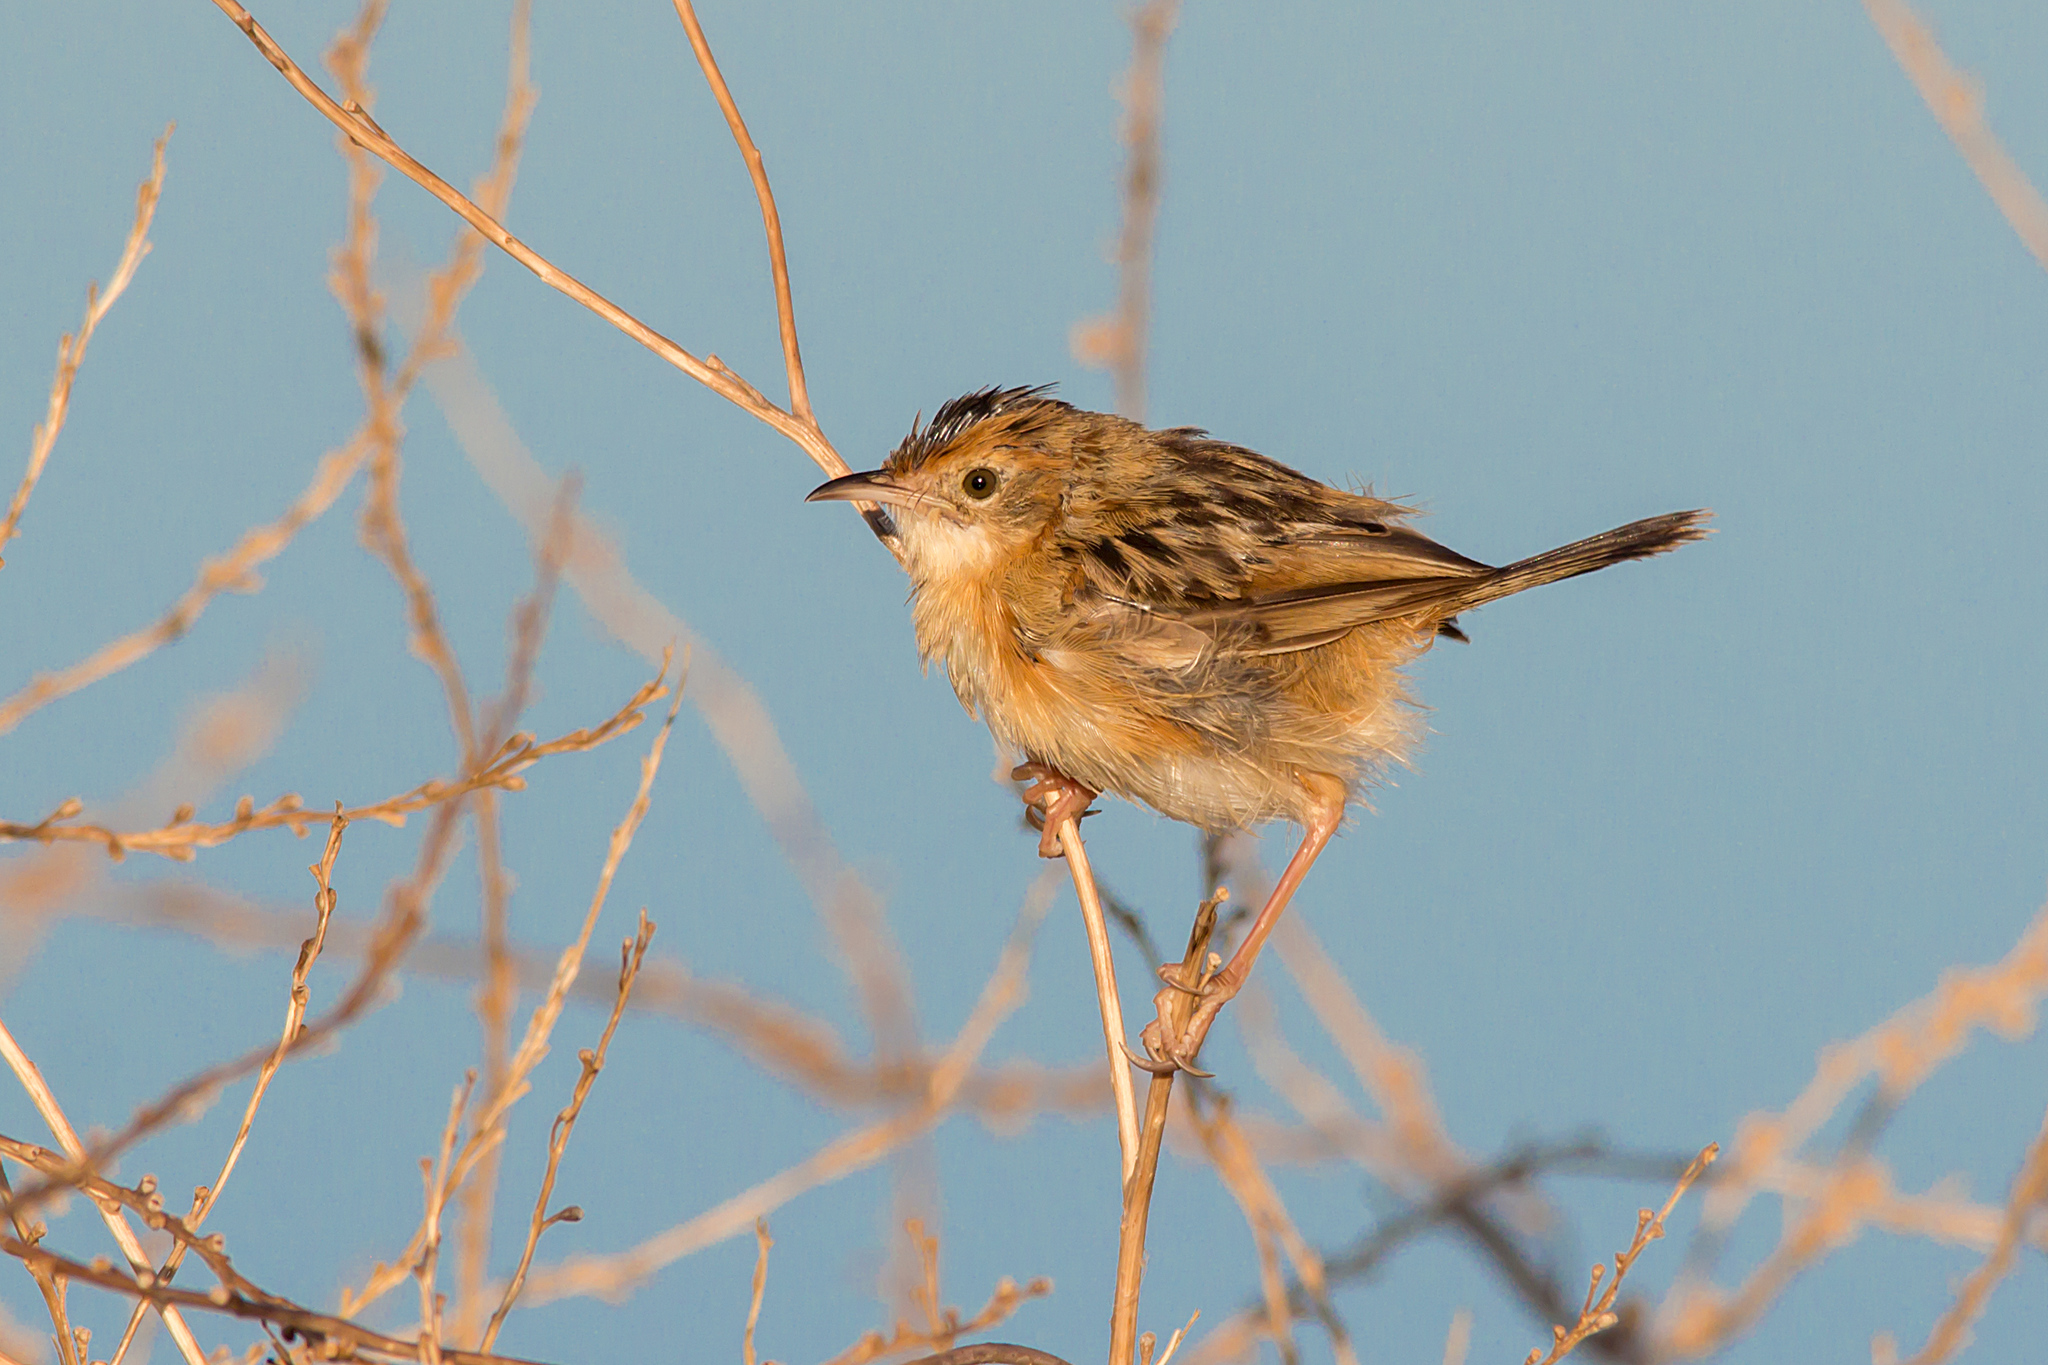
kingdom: Animalia
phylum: Chordata
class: Aves
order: Passeriformes
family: Cisticolidae
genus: Cisticola
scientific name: Cisticola exilis
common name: Golden-headed cisticola
